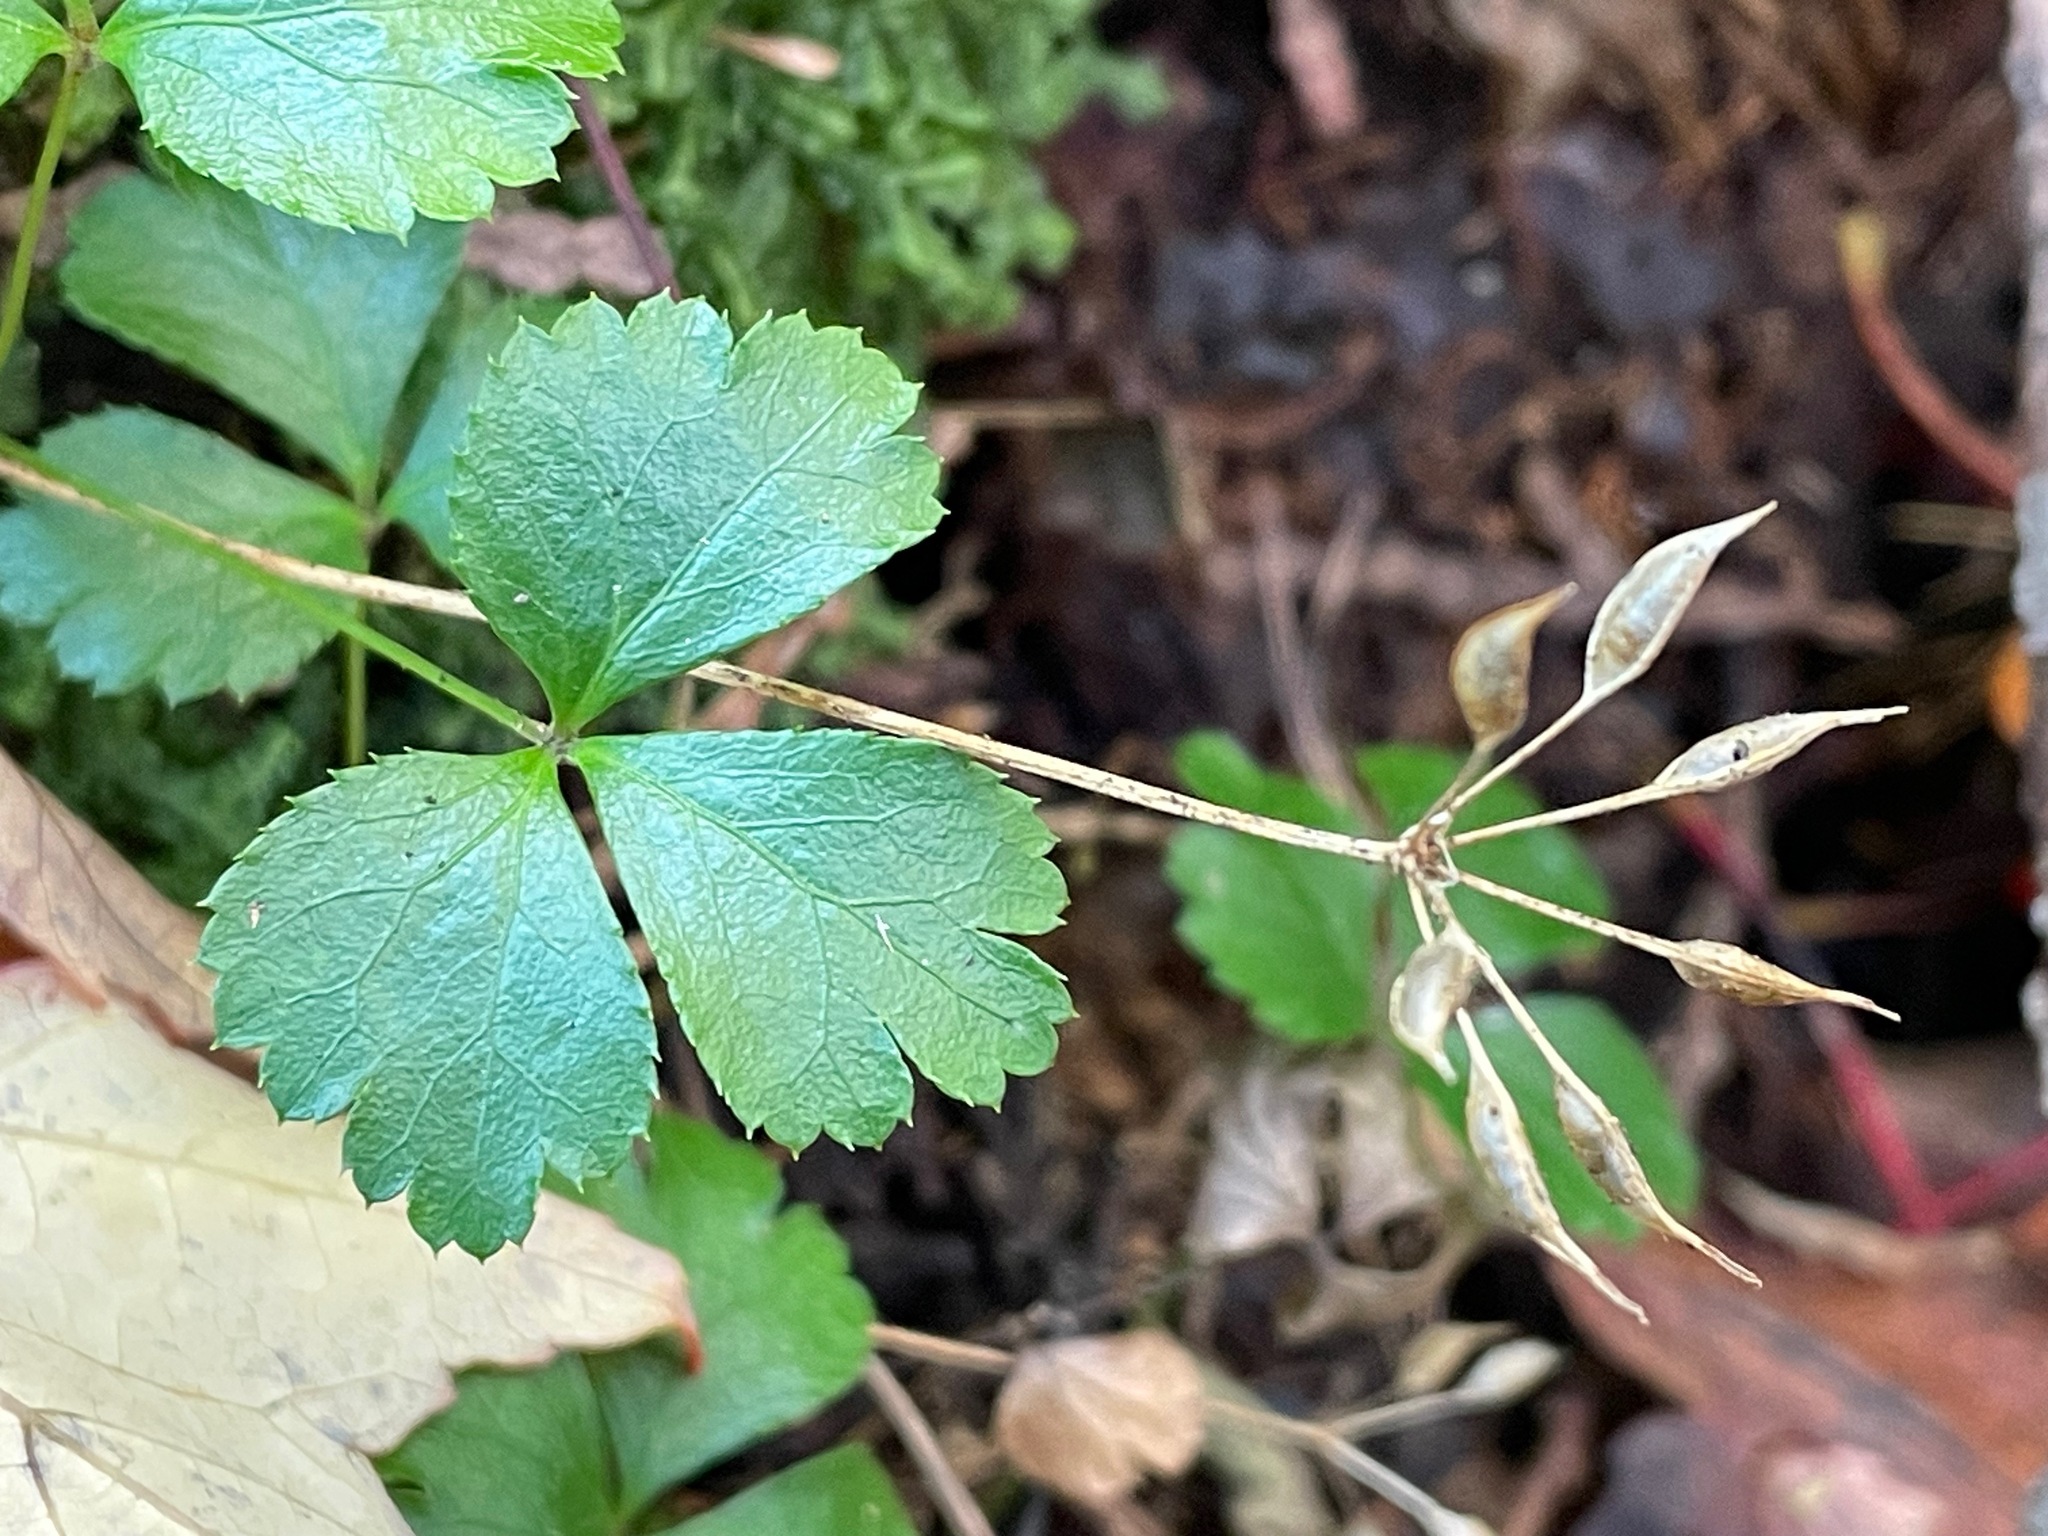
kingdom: Plantae
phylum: Tracheophyta
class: Magnoliopsida
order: Ranunculales
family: Ranunculaceae
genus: Coptis
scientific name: Coptis trifolia
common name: Canker-root
